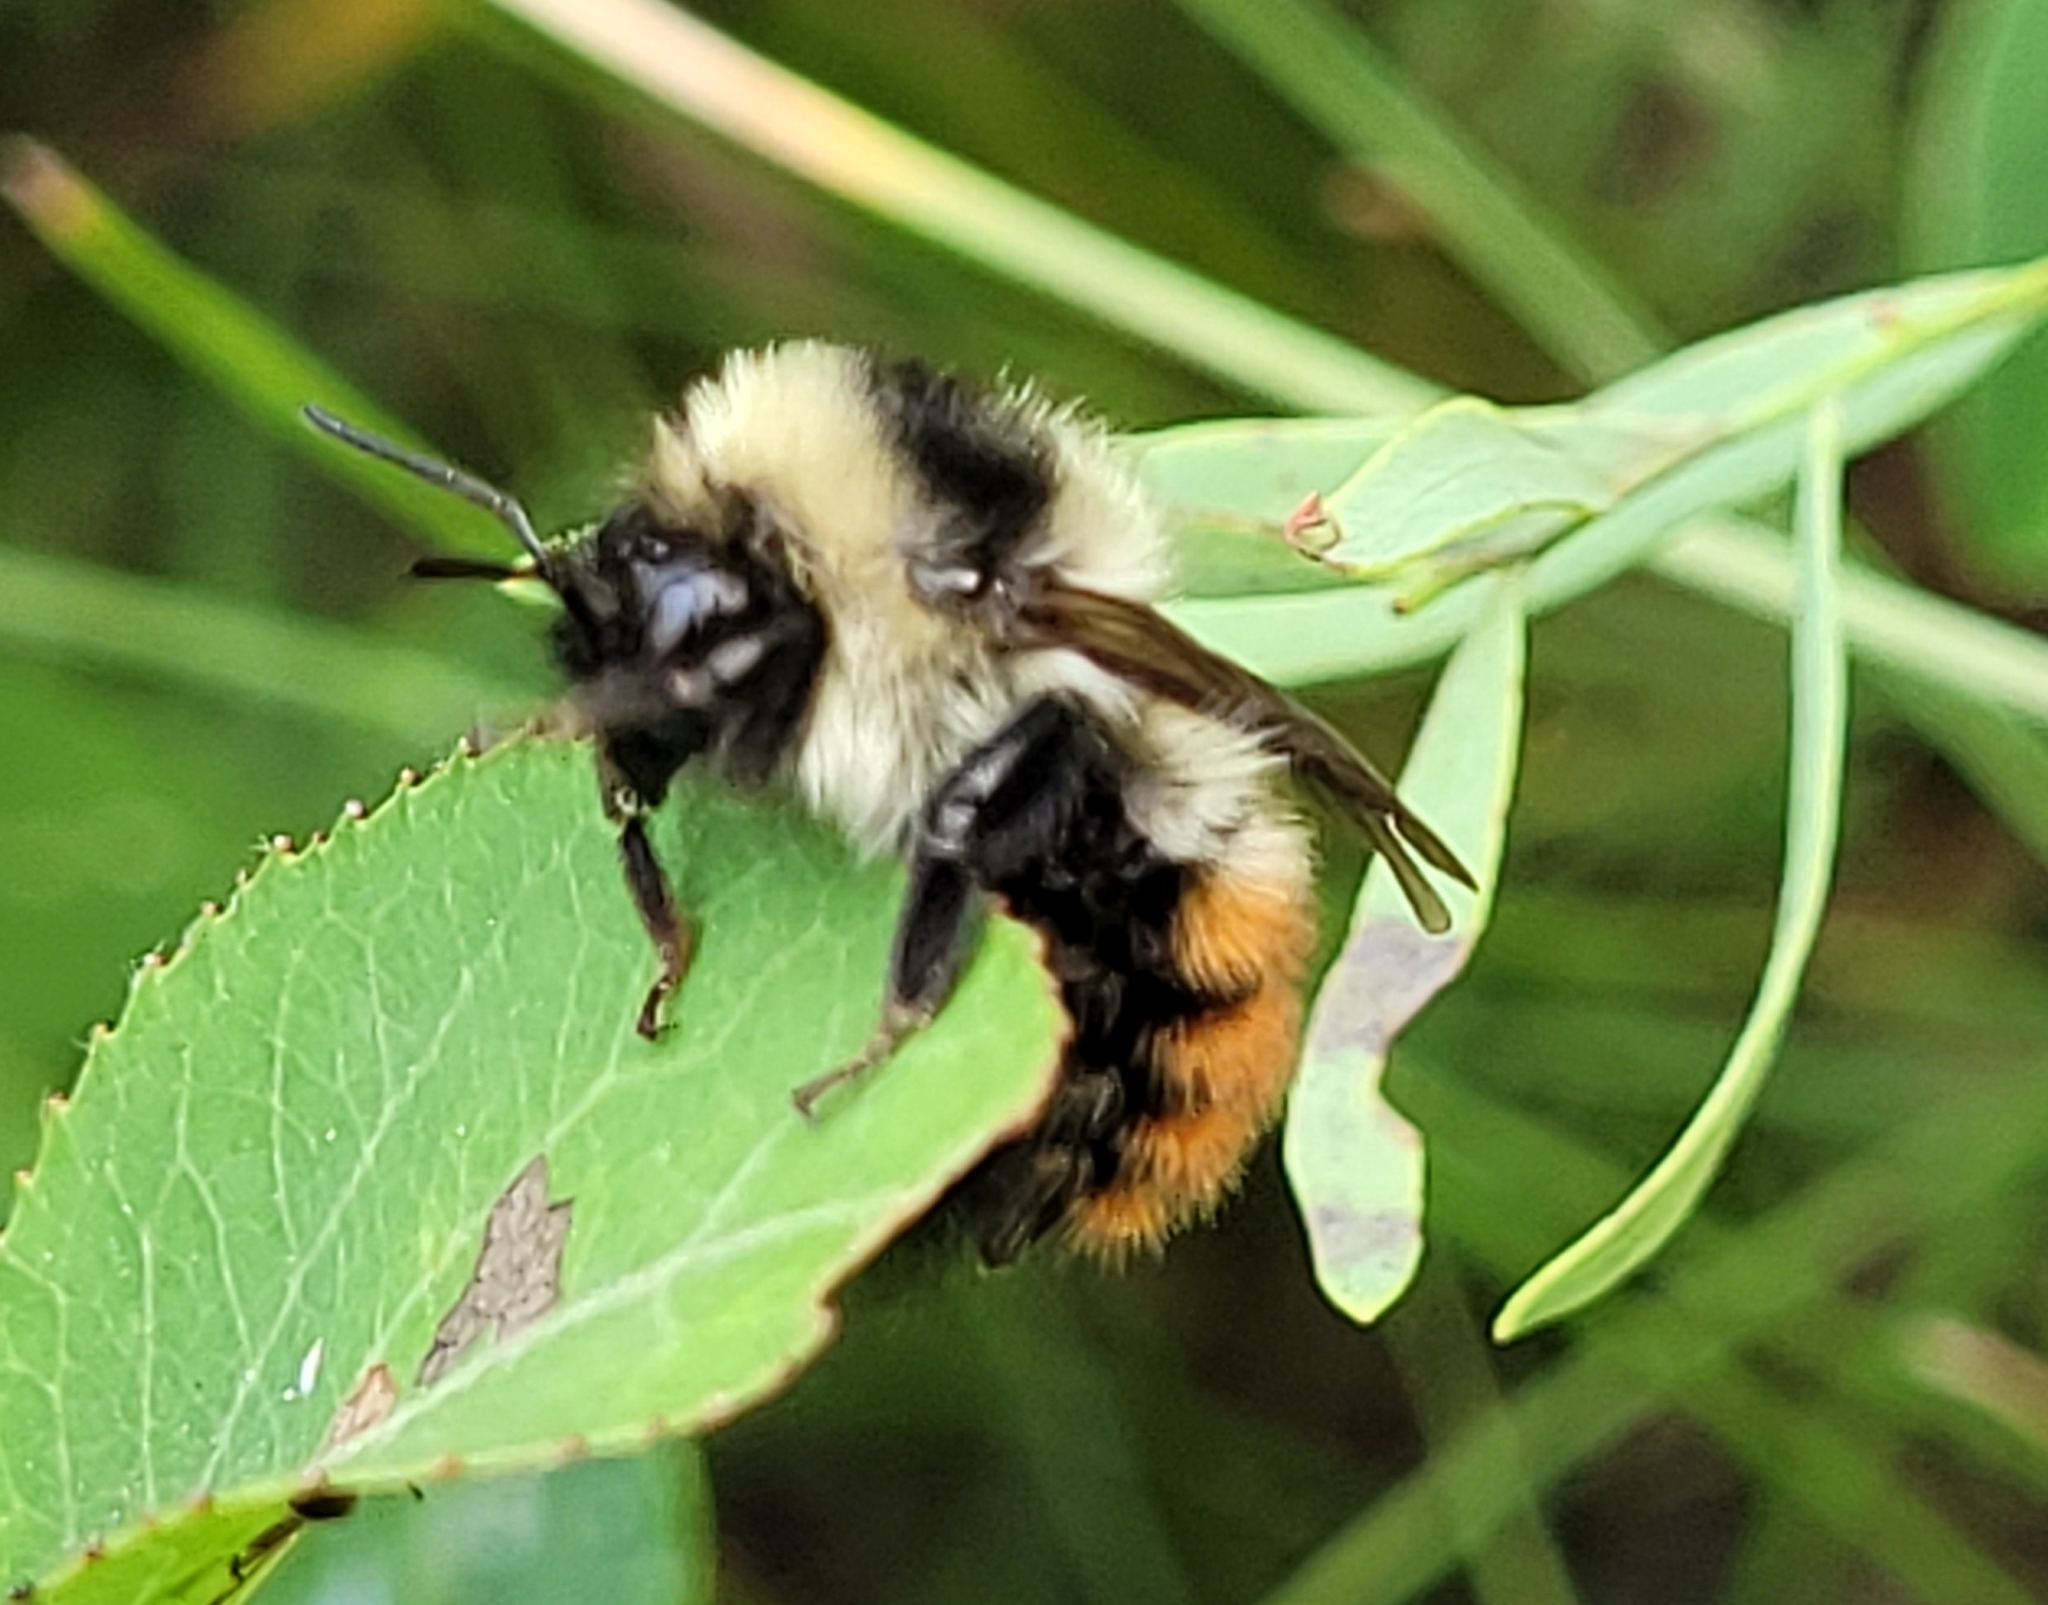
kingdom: Animalia
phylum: Arthropoda
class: Insecta
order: Hymenoptera
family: Apidae
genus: Bombus
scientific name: Bombus rufocinctus
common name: Red-belted bumble bee
